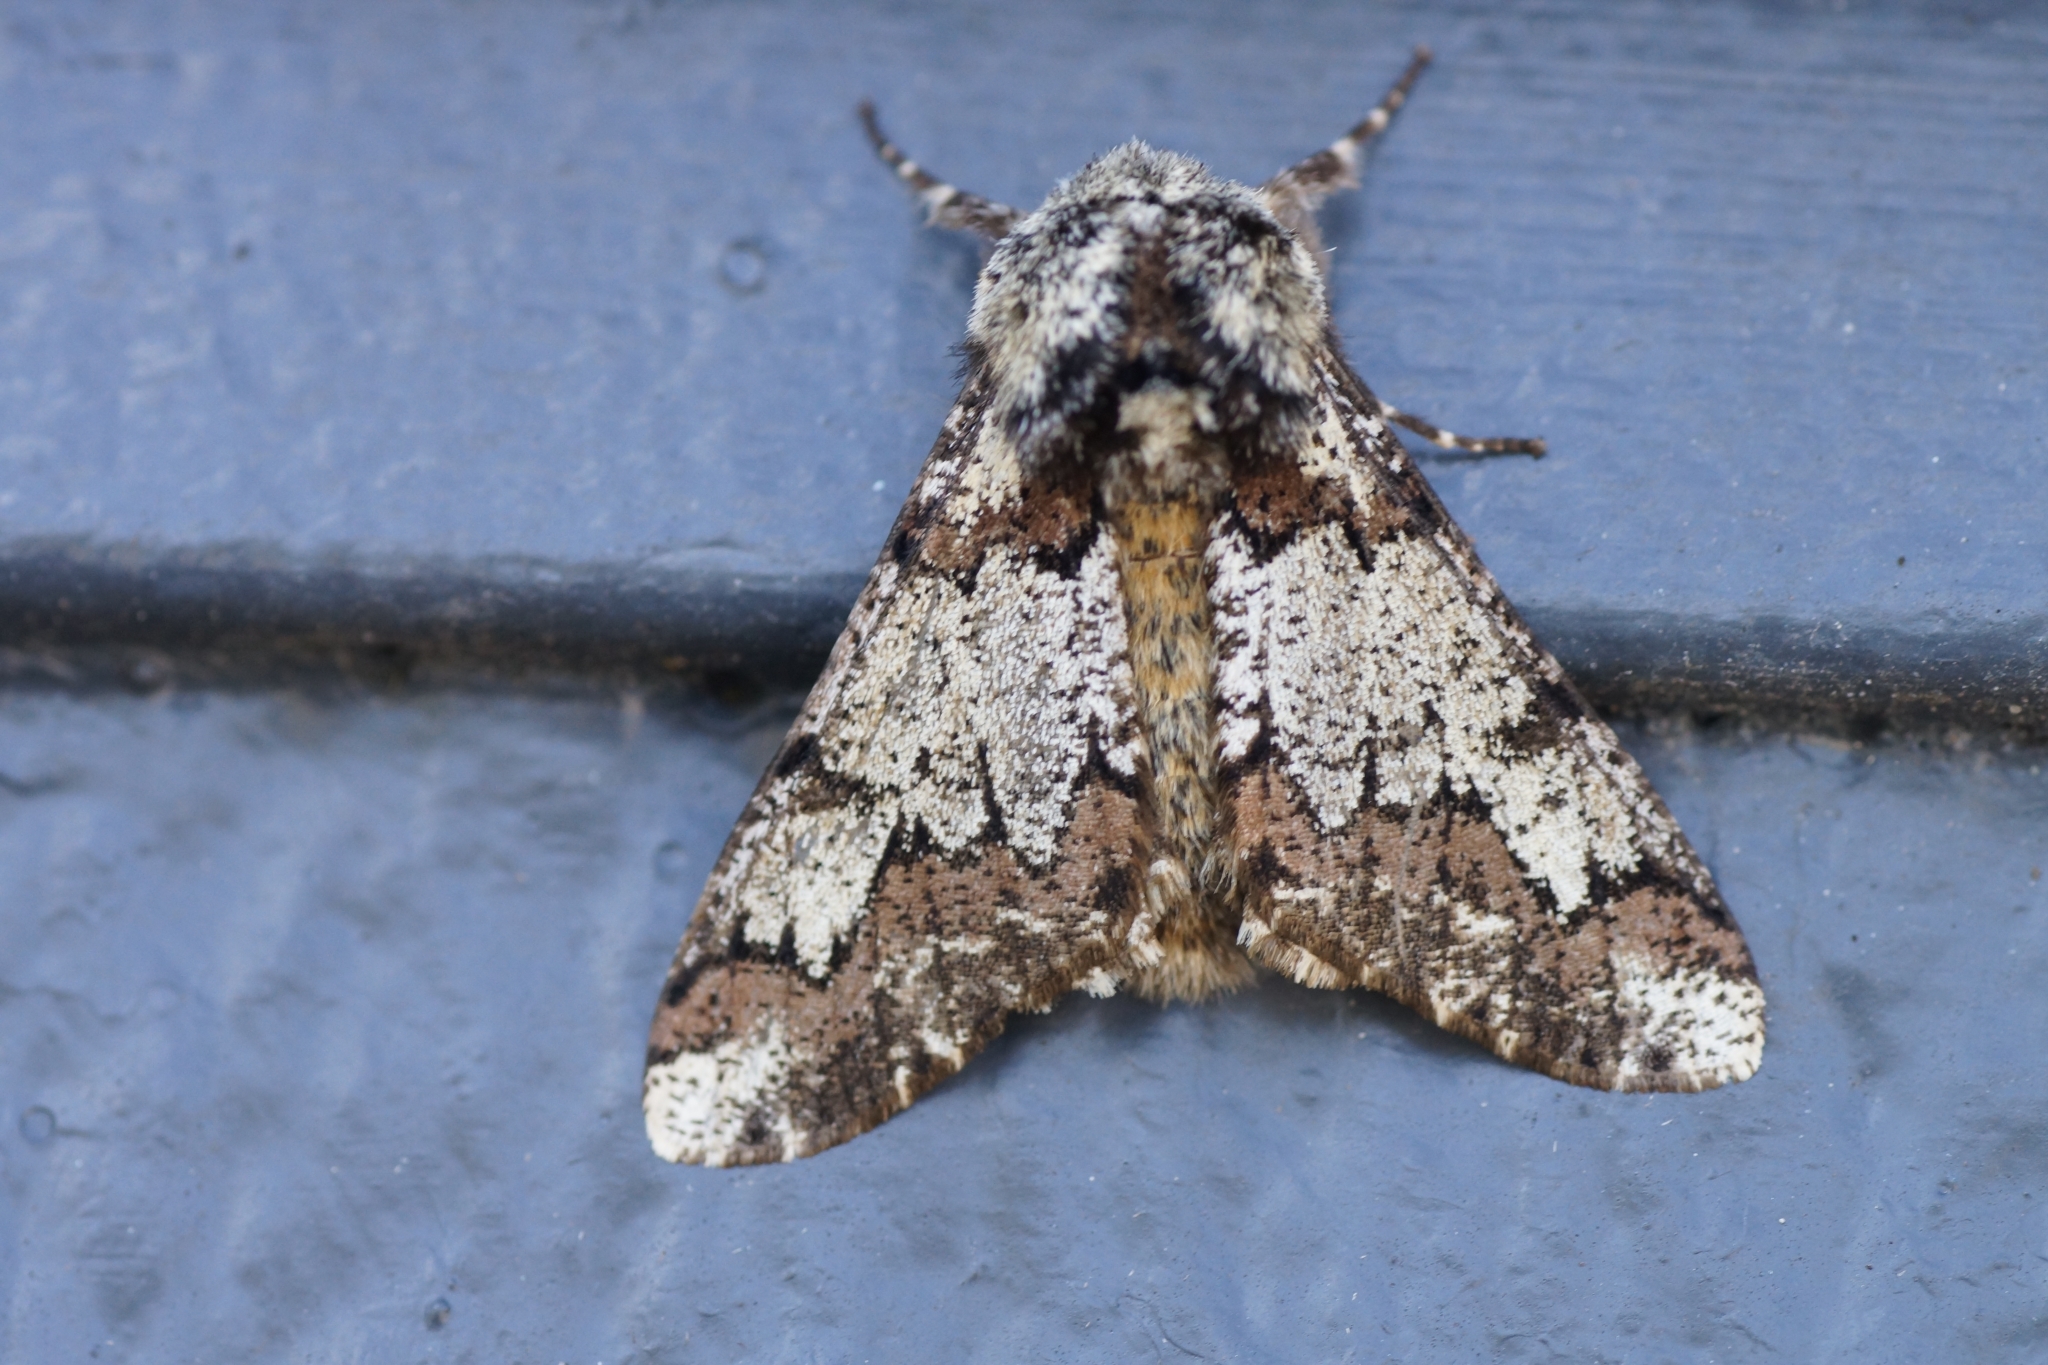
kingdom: Animalia
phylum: Arthropoda
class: Insecta
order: Lepidoptera
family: Geometridae
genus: Biston
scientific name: Biston strataria
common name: Oak beauty
